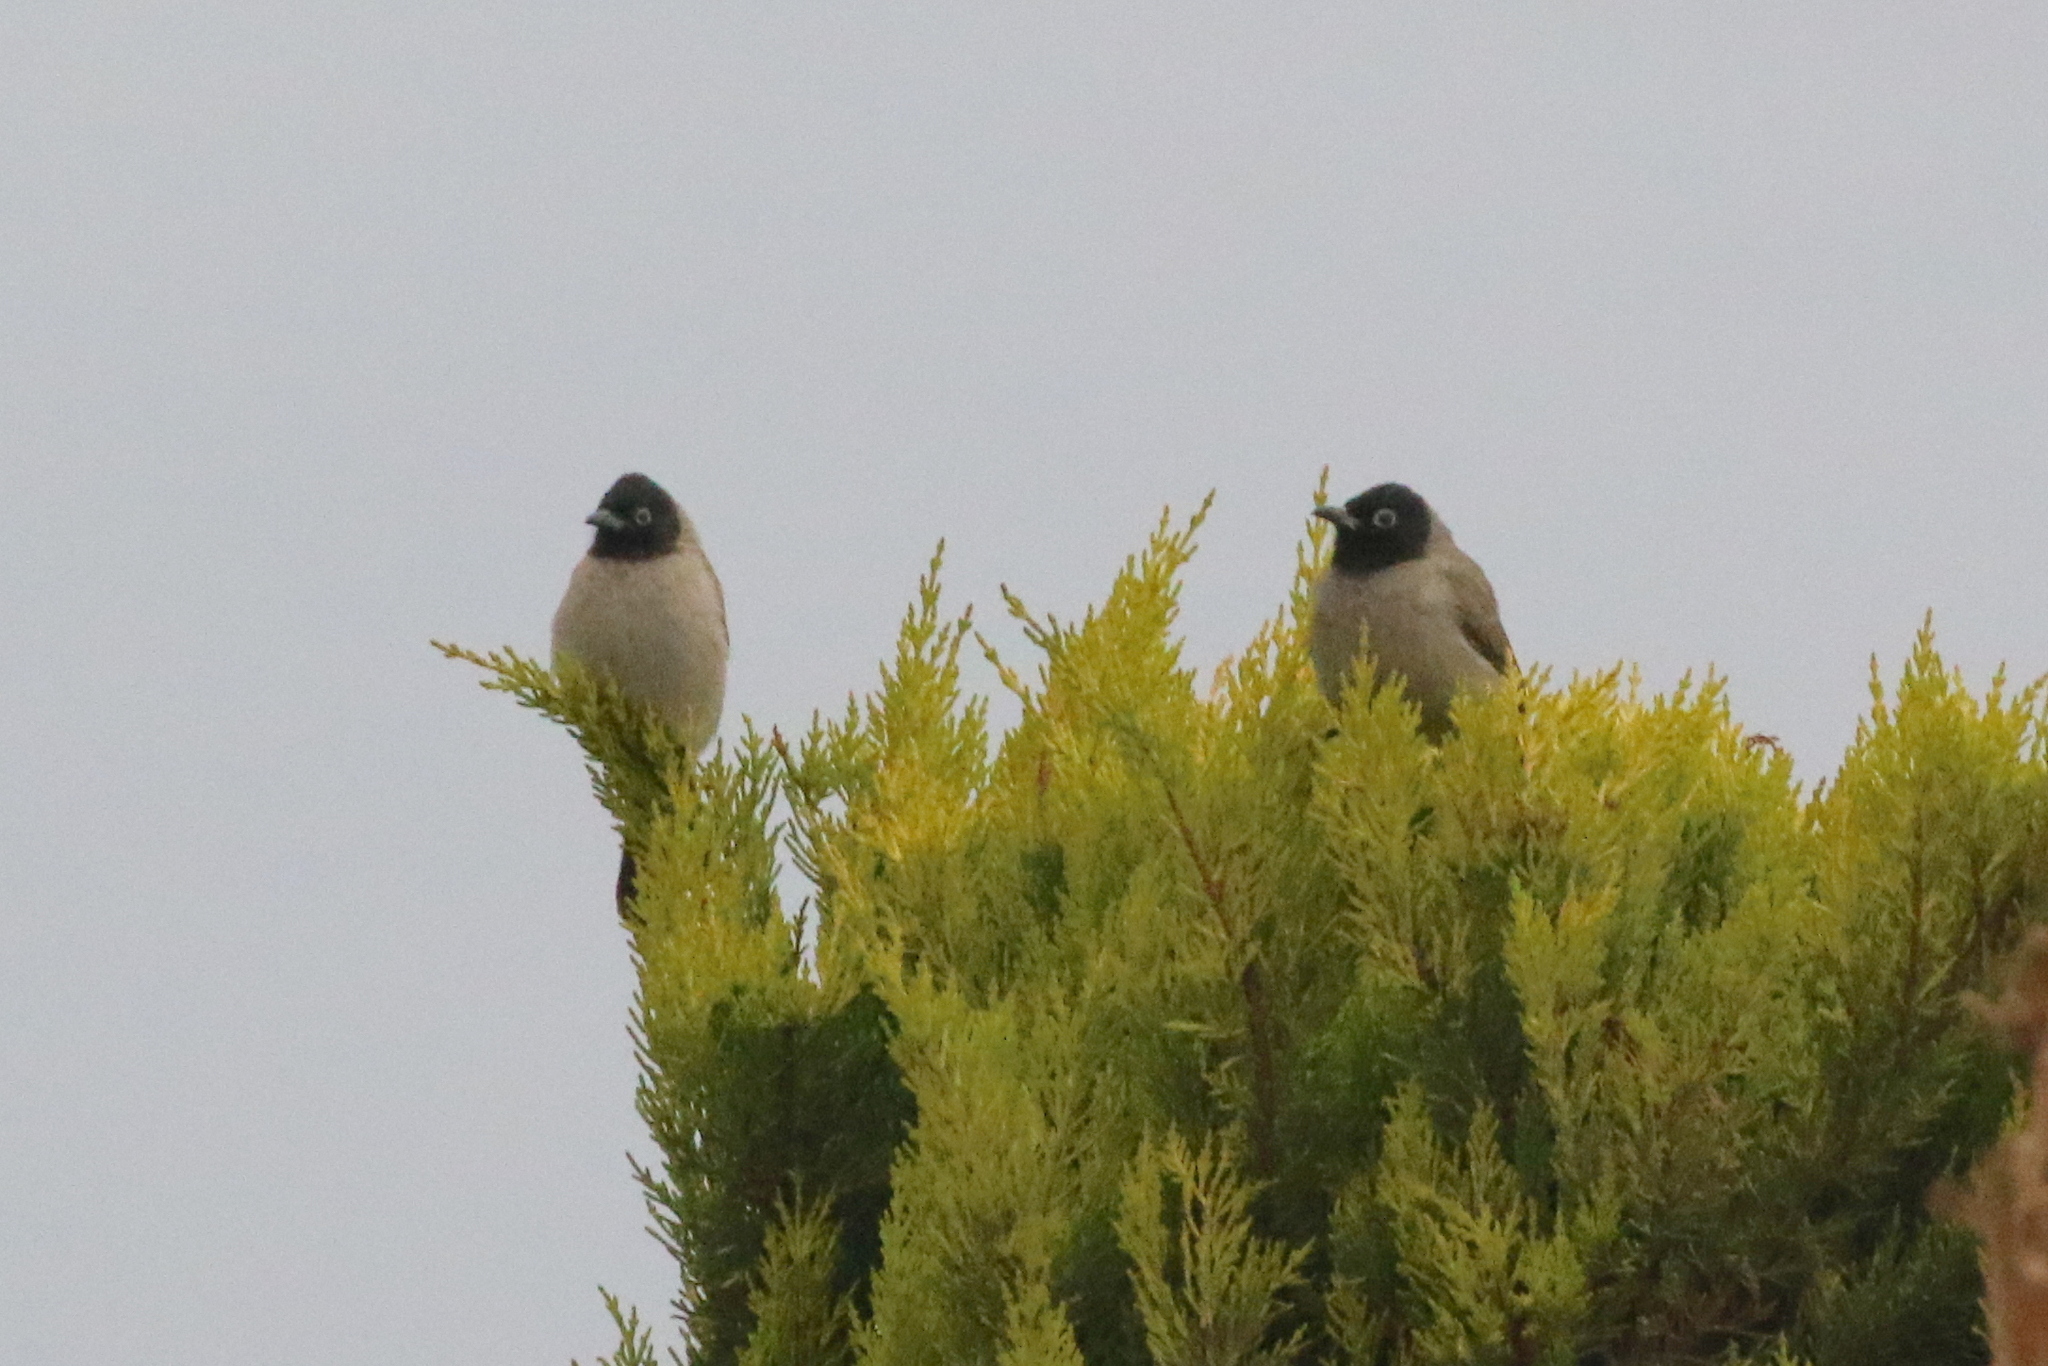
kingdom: Animalia
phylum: Chordata
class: Aves
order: Passeriformes
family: Pycnonotidae
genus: Pycnonotus
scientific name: Pycnonotus xanthopygos
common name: White-spectacled bulbul
